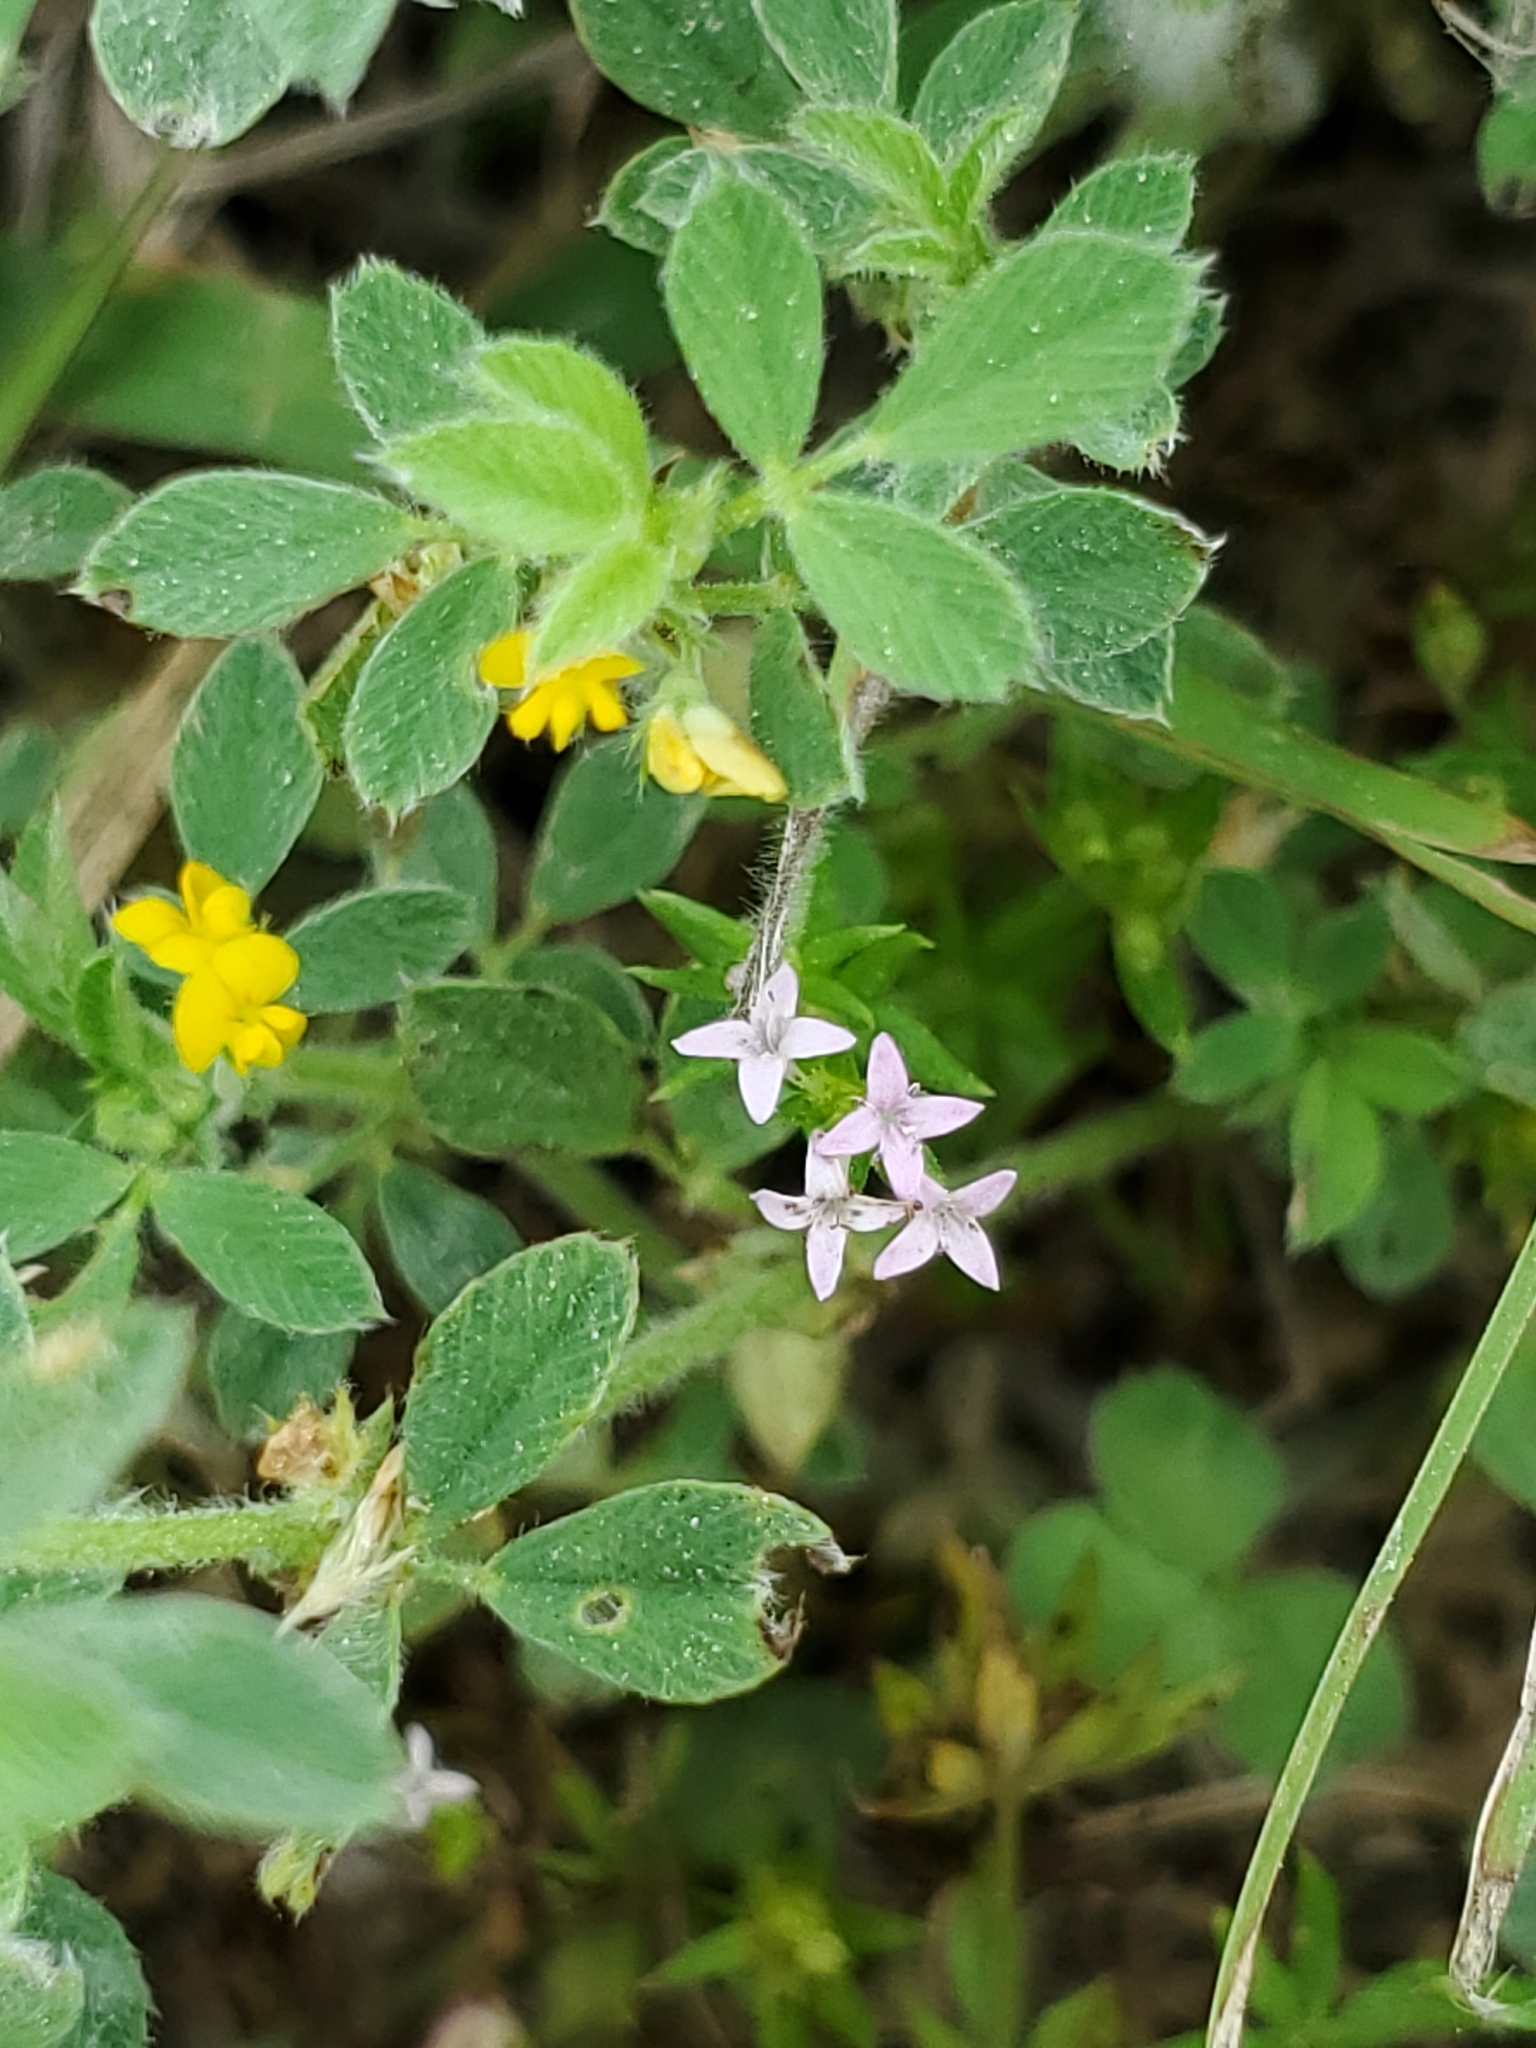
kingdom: Plantae
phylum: Tracheophyta
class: Magnoliopsida
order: Gentianales
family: Rubiaceae
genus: Sherardia
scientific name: Sherardia arvensis
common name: Field madder
